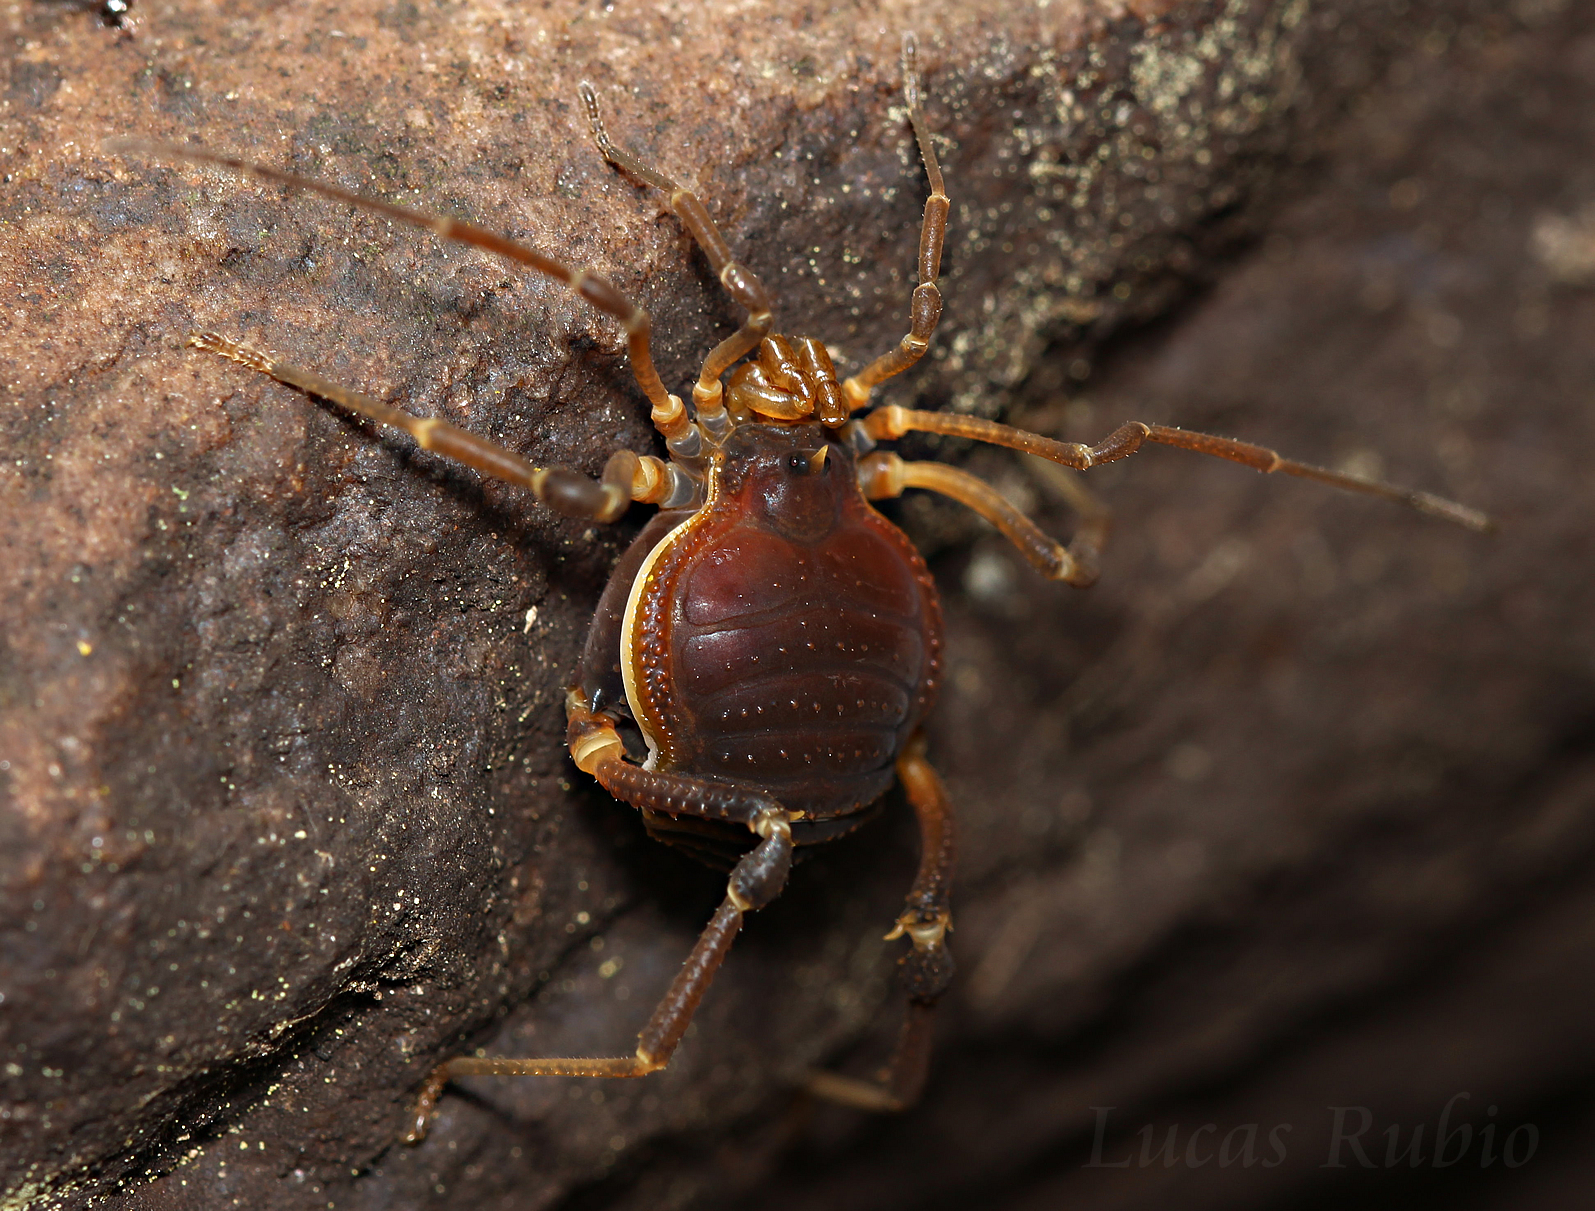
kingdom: Animalia
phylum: Arthropoda
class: Arachnida
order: Opiliones
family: Gonyleptidae
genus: Acanthopachylus
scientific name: Acanthopachylus robustus
